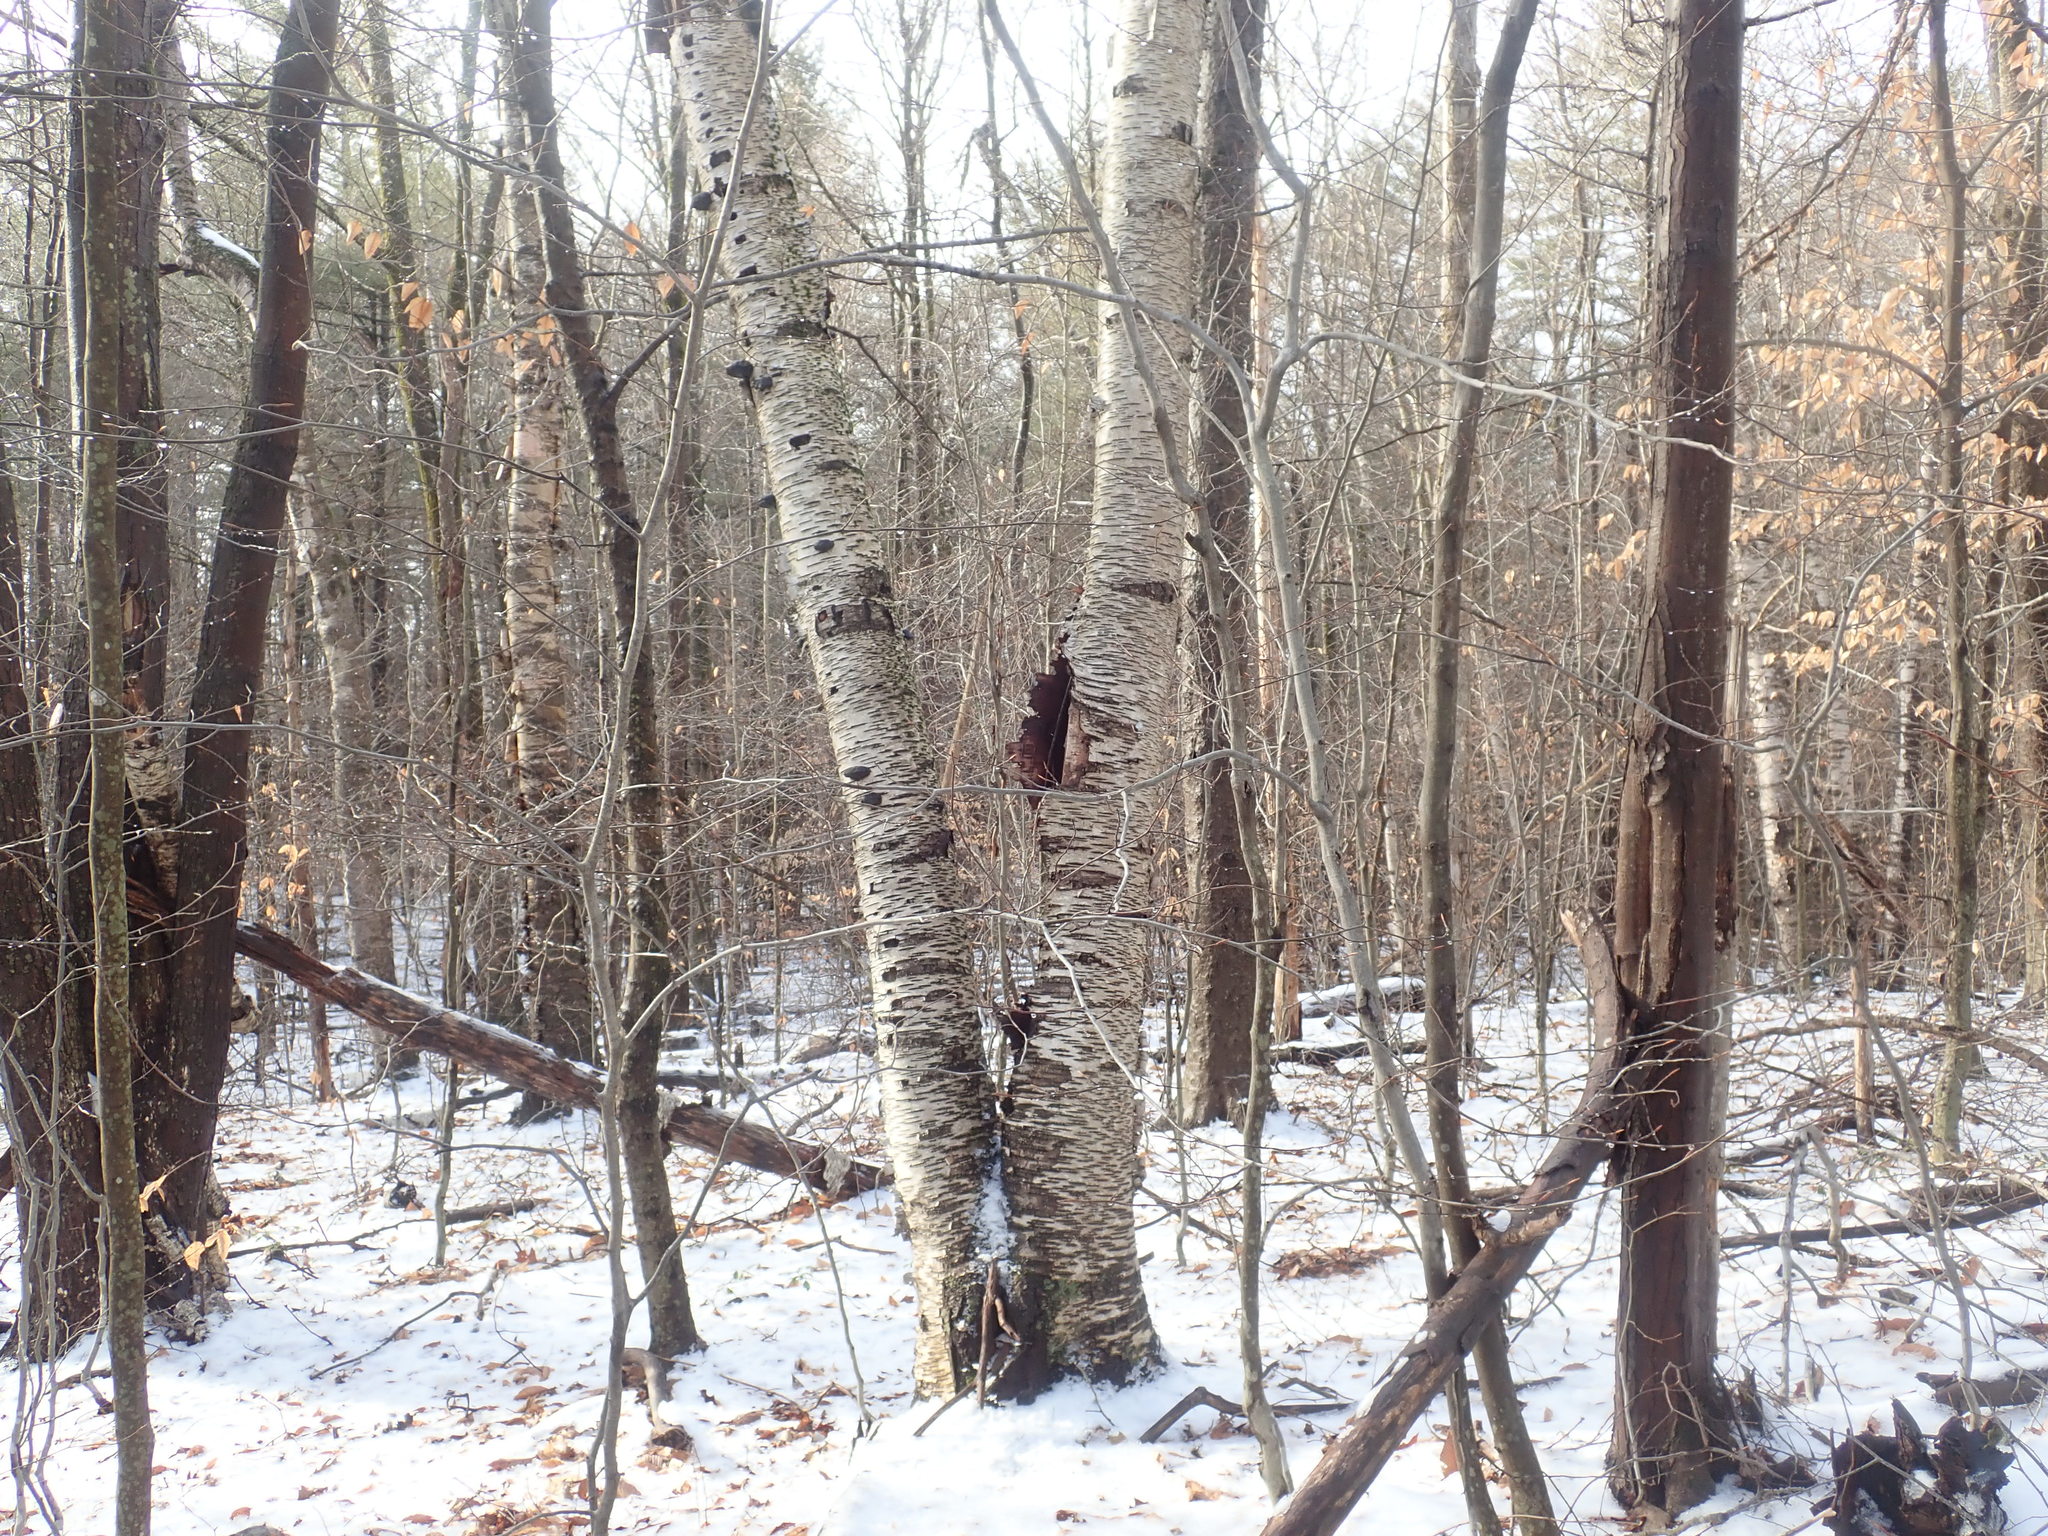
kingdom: Plantae
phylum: Tracheophyta
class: Magnoliopsida
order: Fagales
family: Betulaceae
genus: Betula
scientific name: Betula papyrifera
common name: Paper birch
